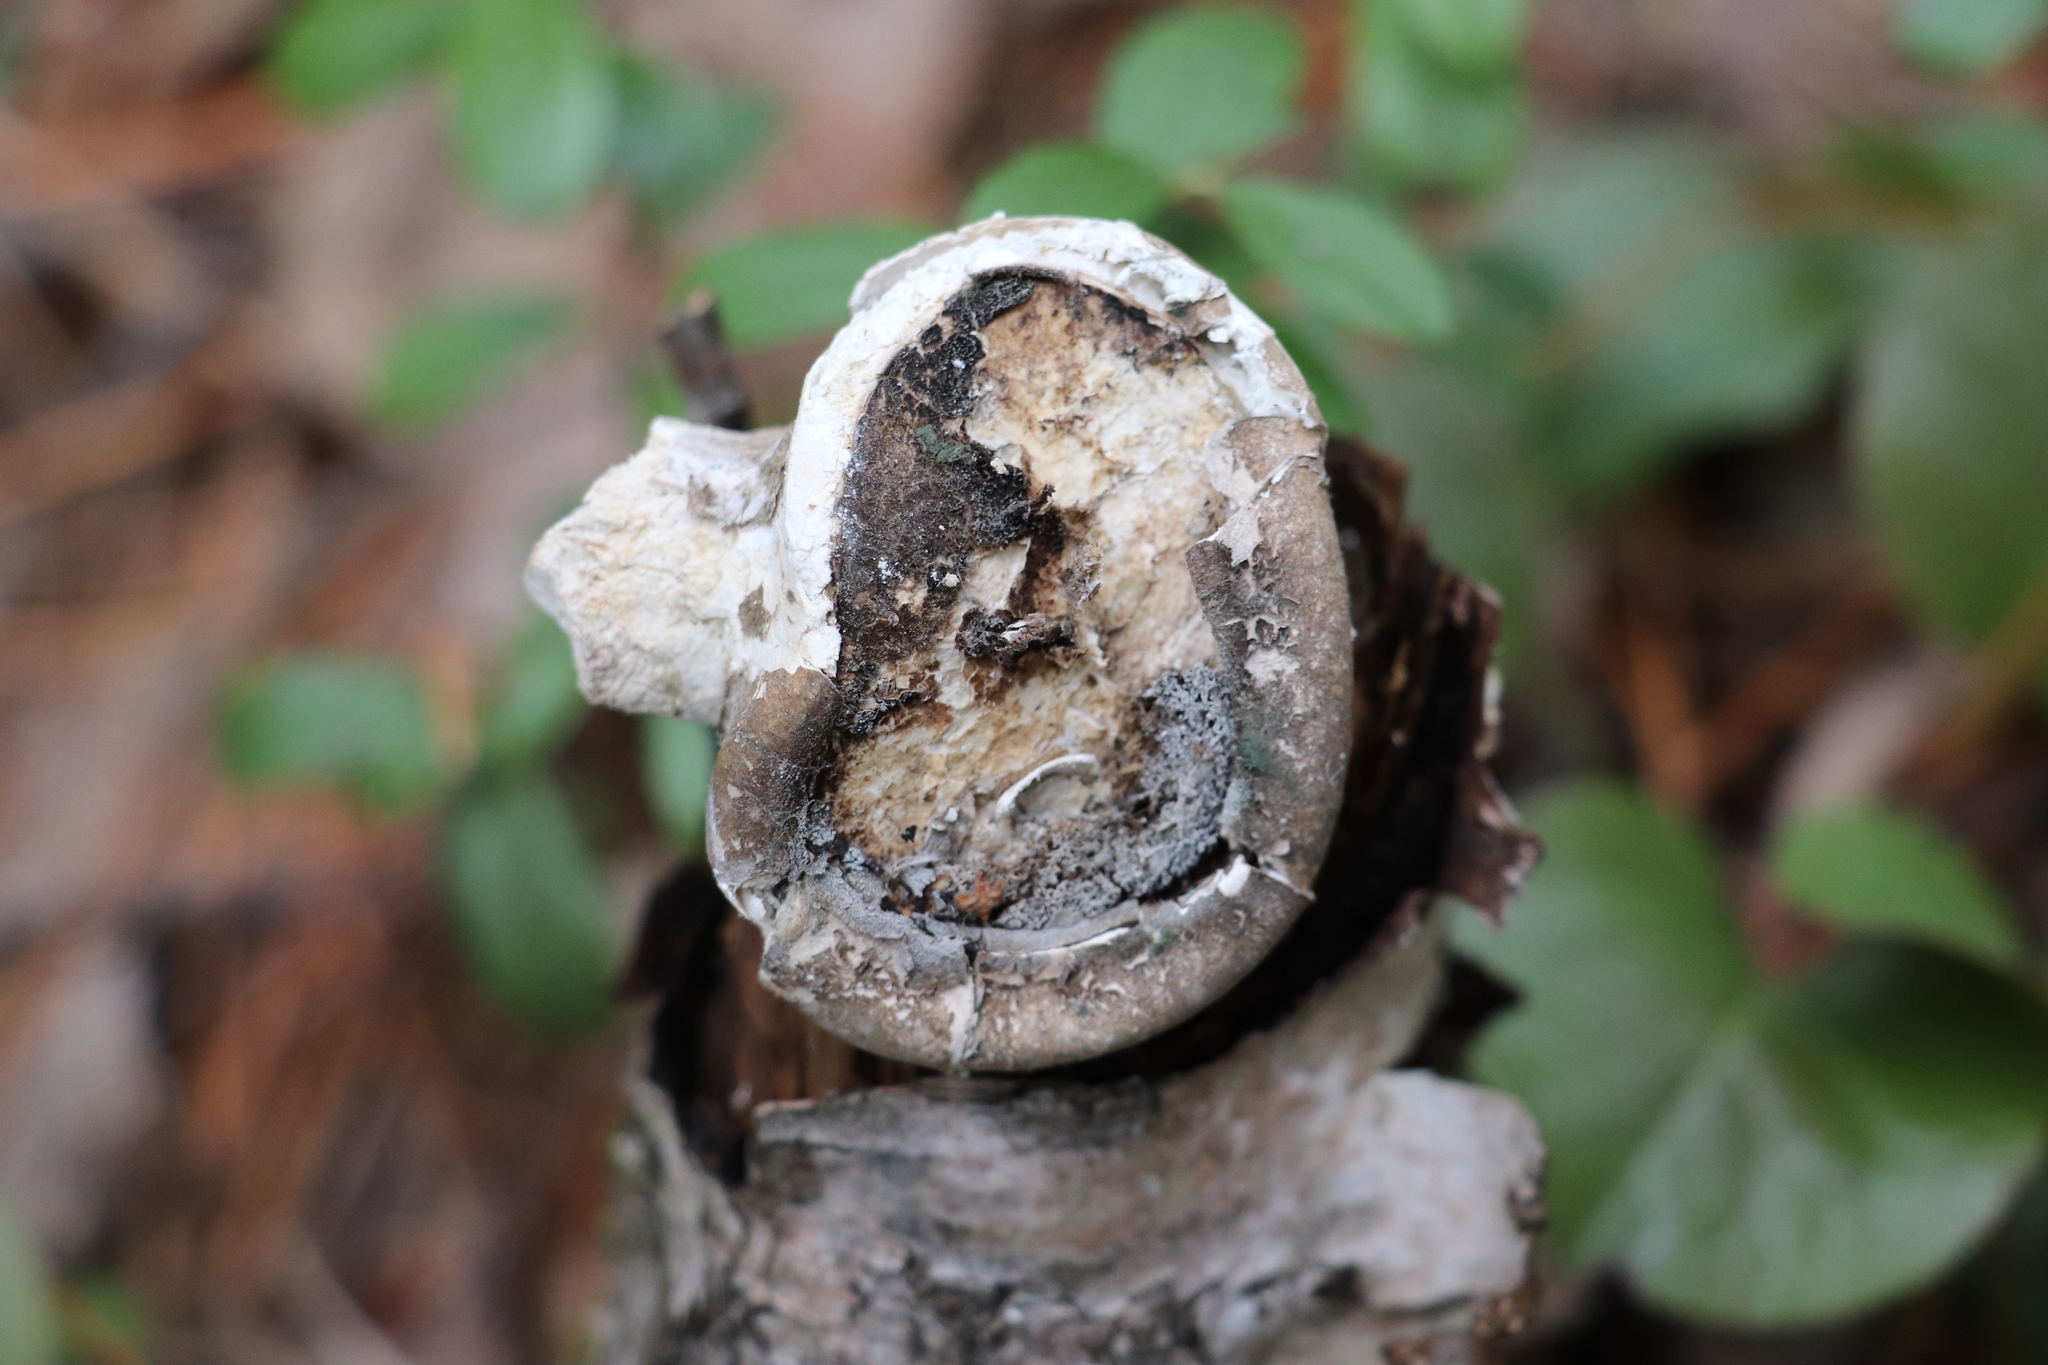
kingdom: Fungi
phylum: Basidiomycota
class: Agaricomycetes
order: Polyporales
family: Fomitopsidaceae
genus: Fomitopsis
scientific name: Fomitopsis betulina
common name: Birch polypore
